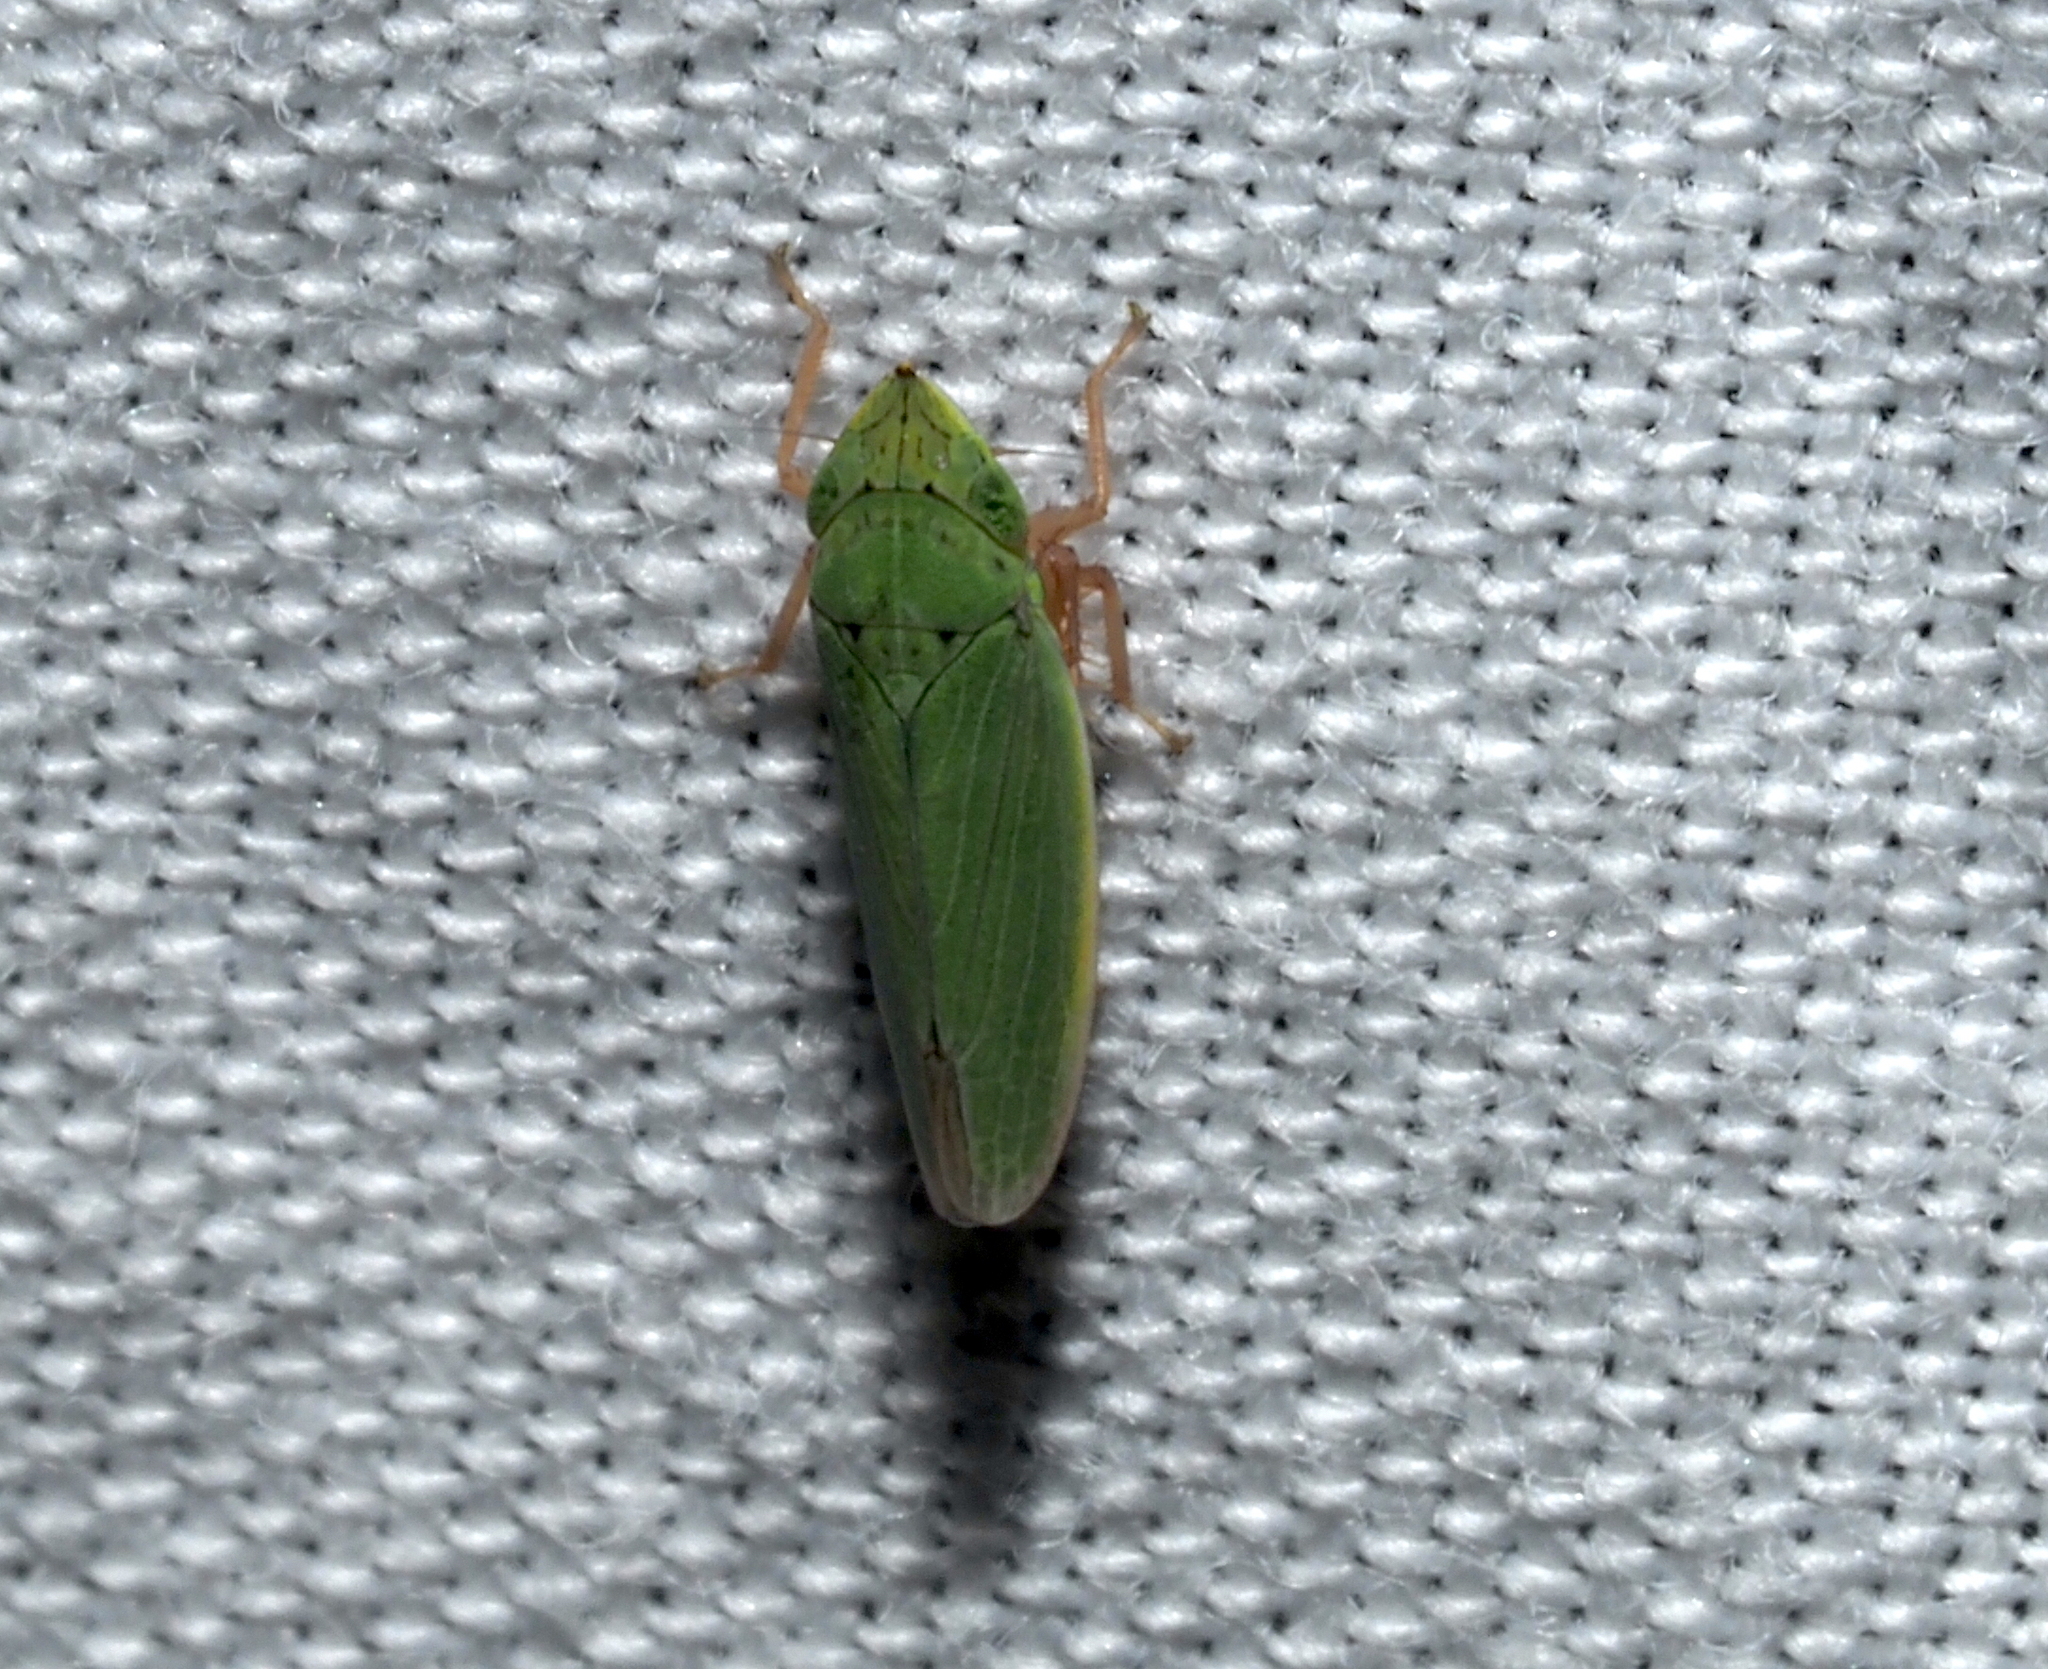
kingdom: Animalia
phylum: Arthropoda
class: Insecta
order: Hemiptera
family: Cicadellidae
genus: Draeculacephala
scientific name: Draeculacephala balli
